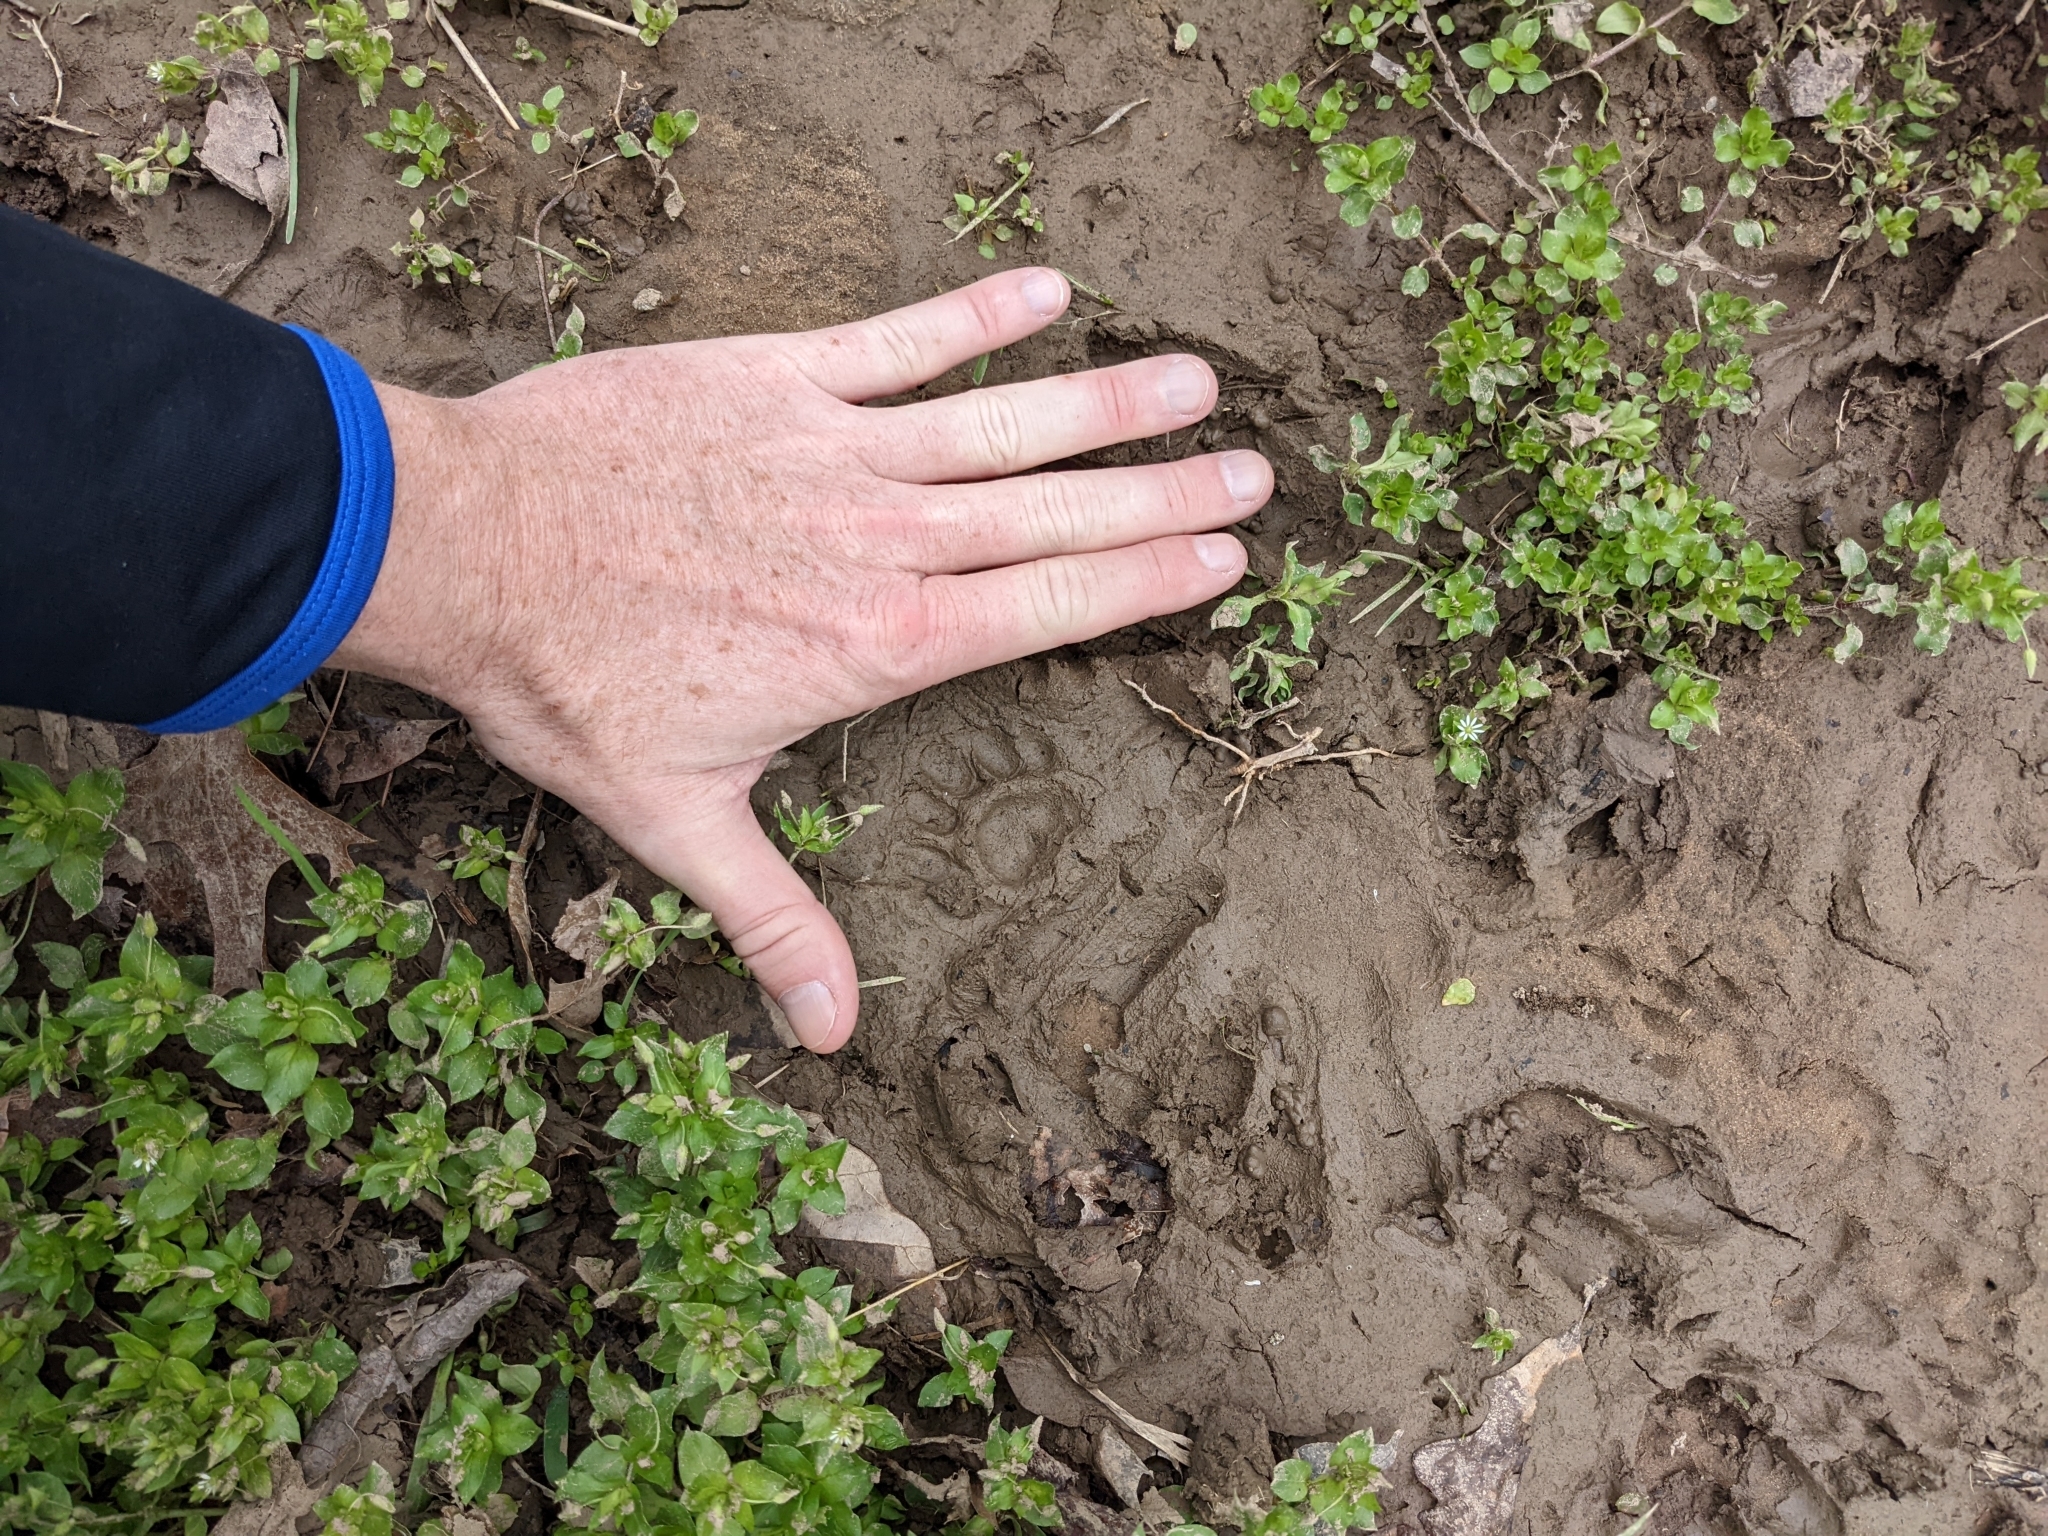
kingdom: Animalia
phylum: Chordata
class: Mammalia
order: Carnivora
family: Felidae
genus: Felis
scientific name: Felis catus
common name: Domestic cat
